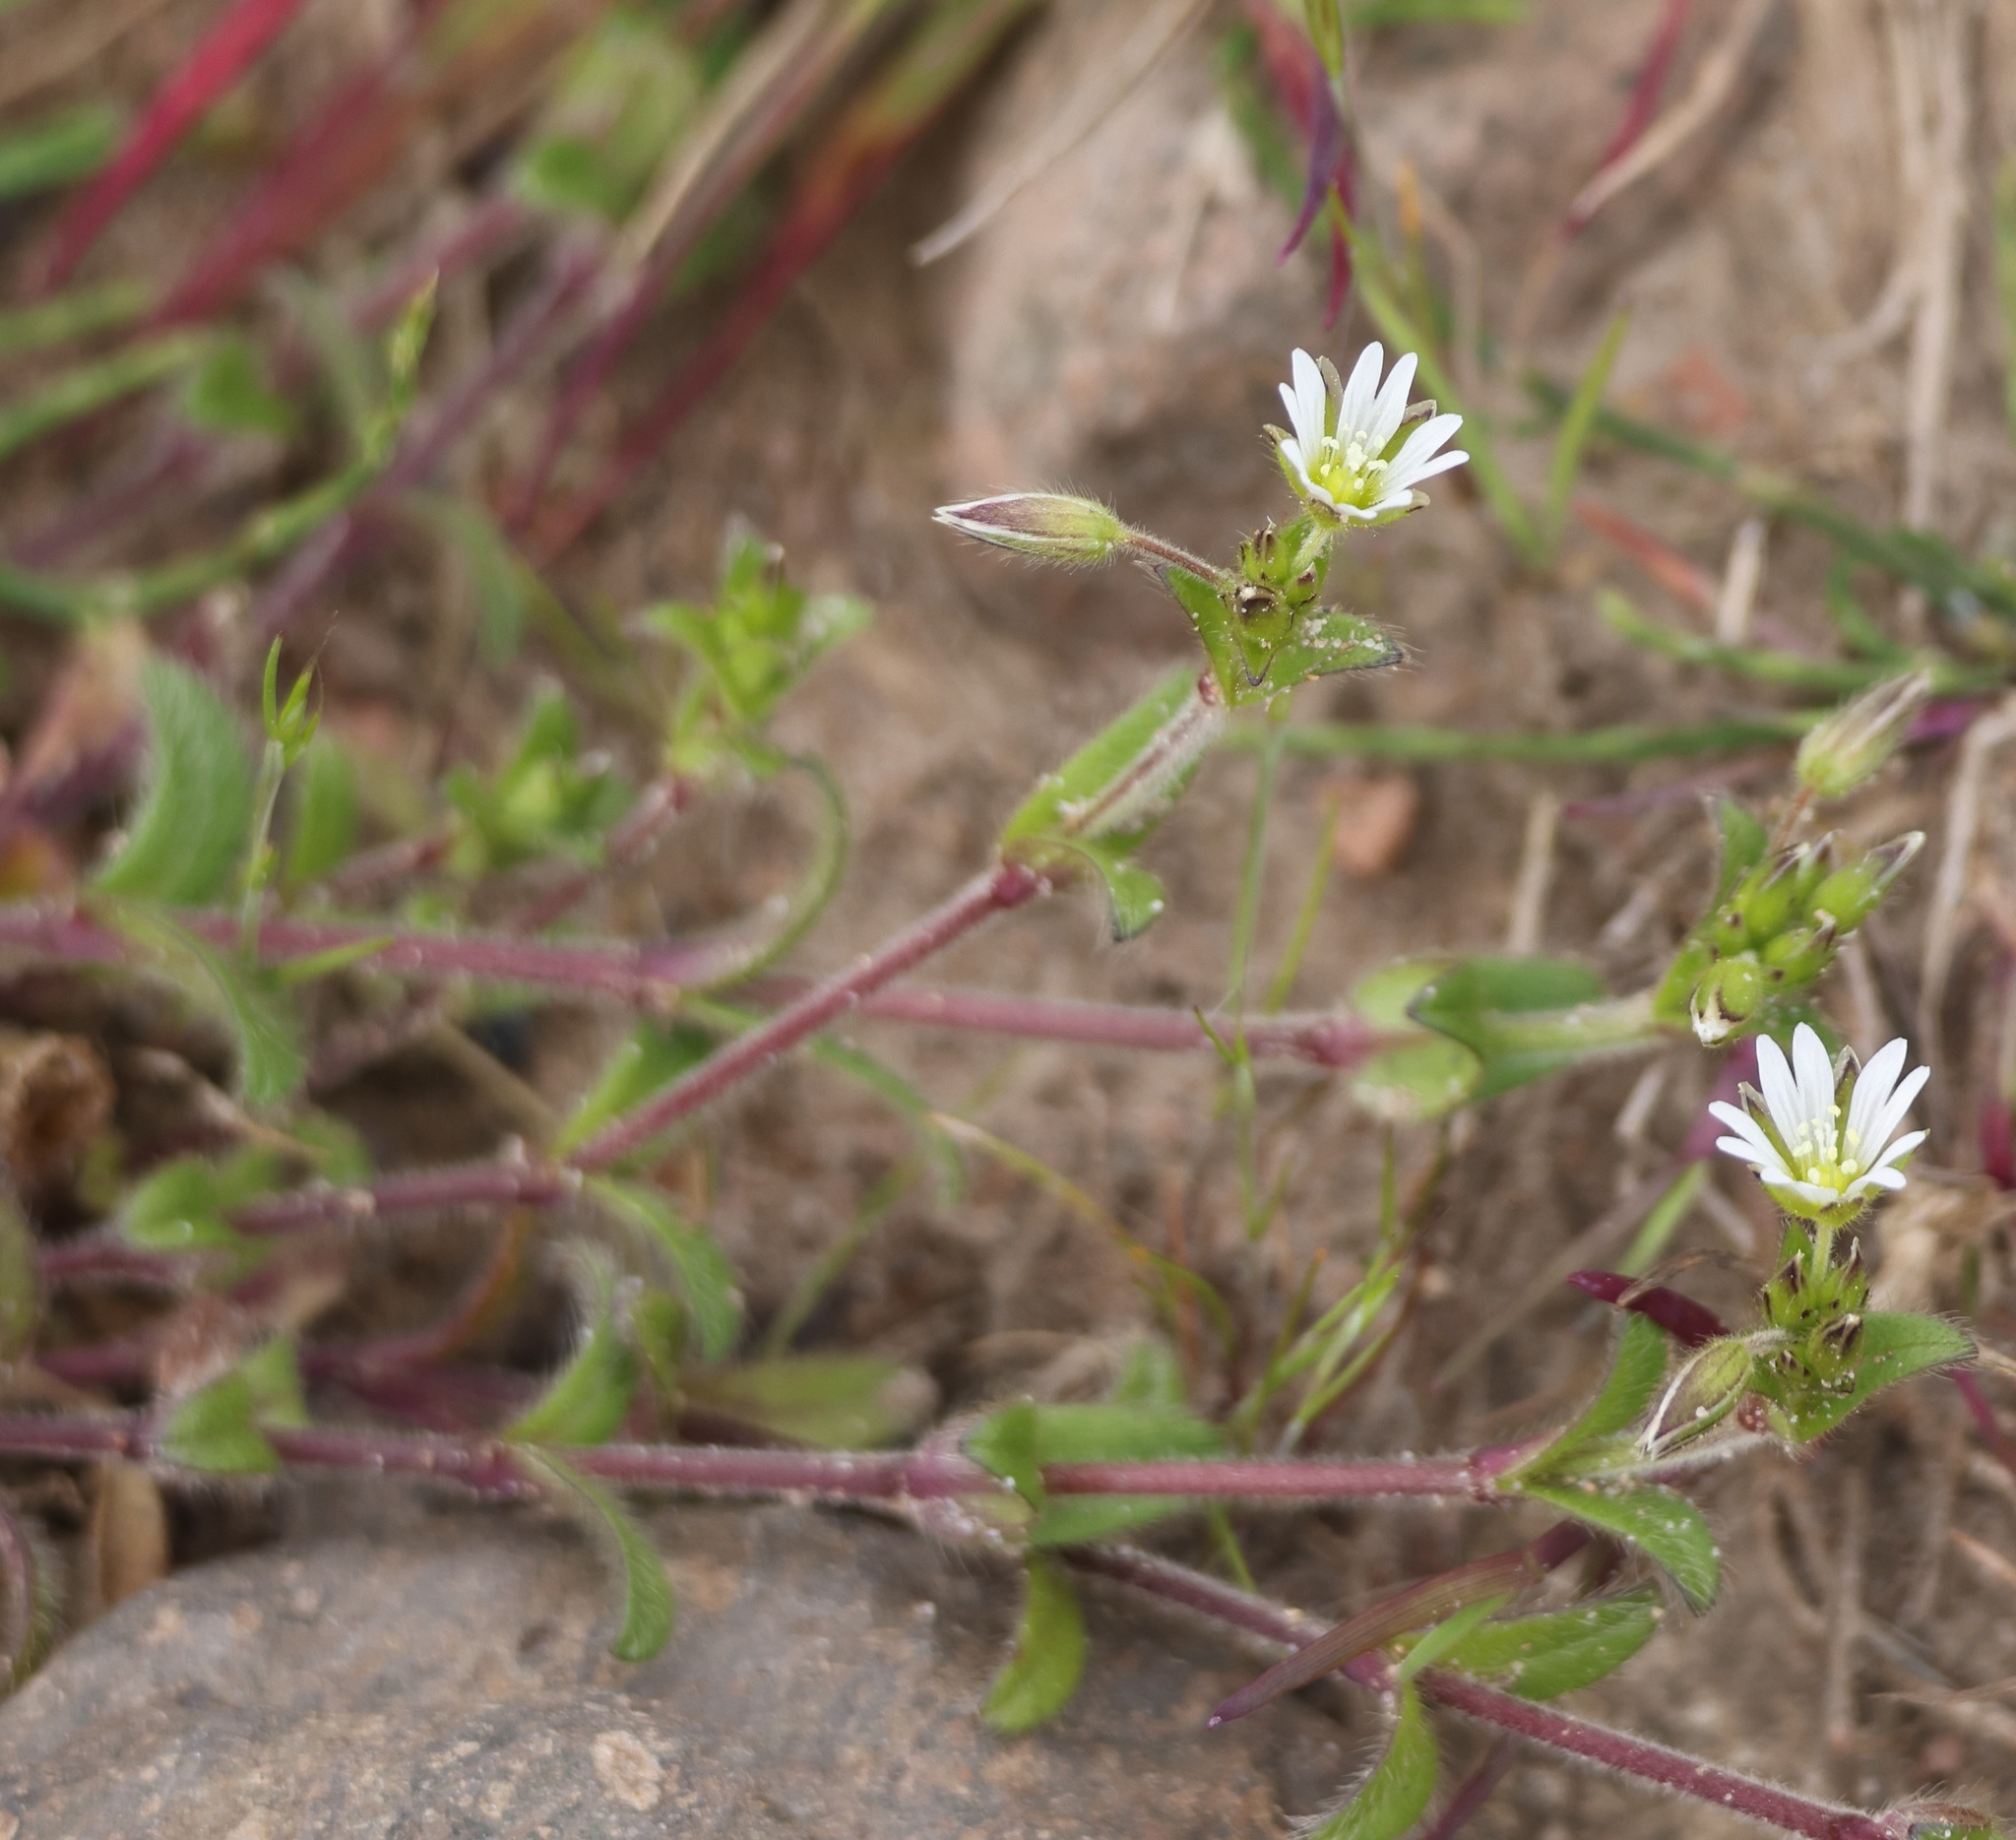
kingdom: Plantae
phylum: Tracheophyta
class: Magnoliopsida
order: Caryophyllales
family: Caryophyllaceae
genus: Cerastium
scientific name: Cerastium fontanum
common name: Common mouse-ear
